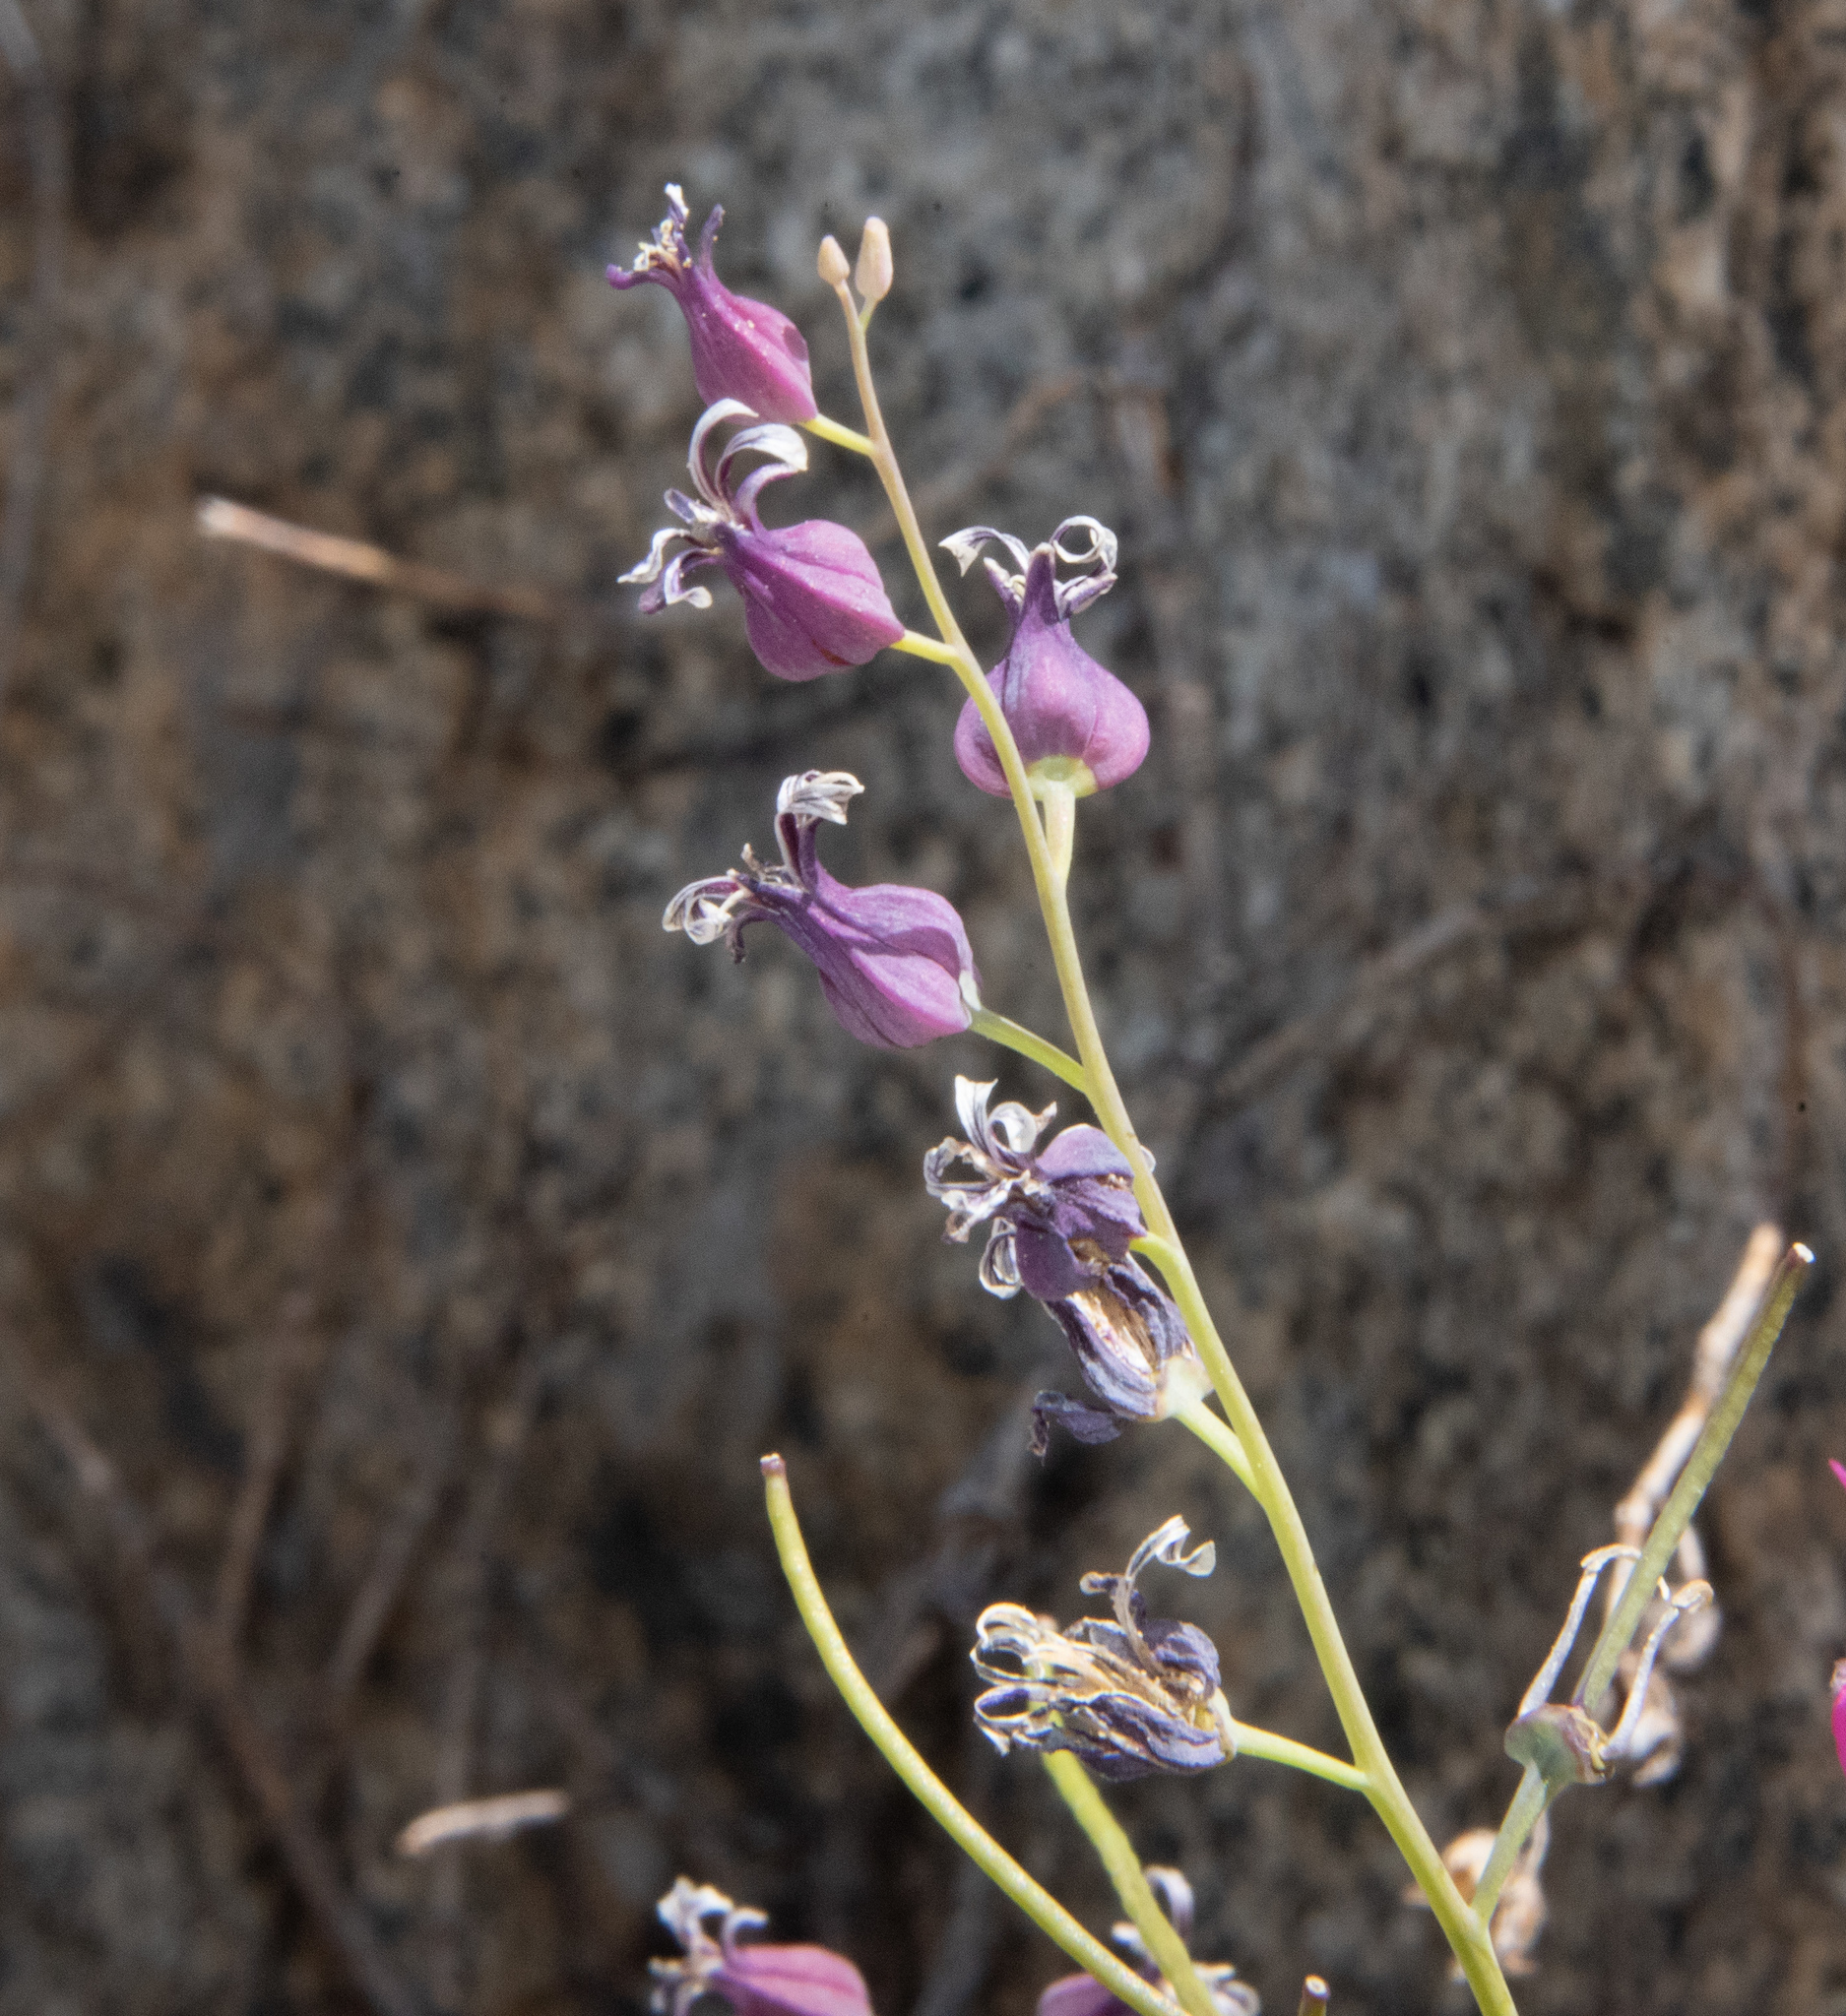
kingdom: Plantae
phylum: Tracheophyta
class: Magnoliopsida
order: Brassicales
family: Brassicaceae
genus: Streptanthus
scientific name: Streptanthus tortuosus
